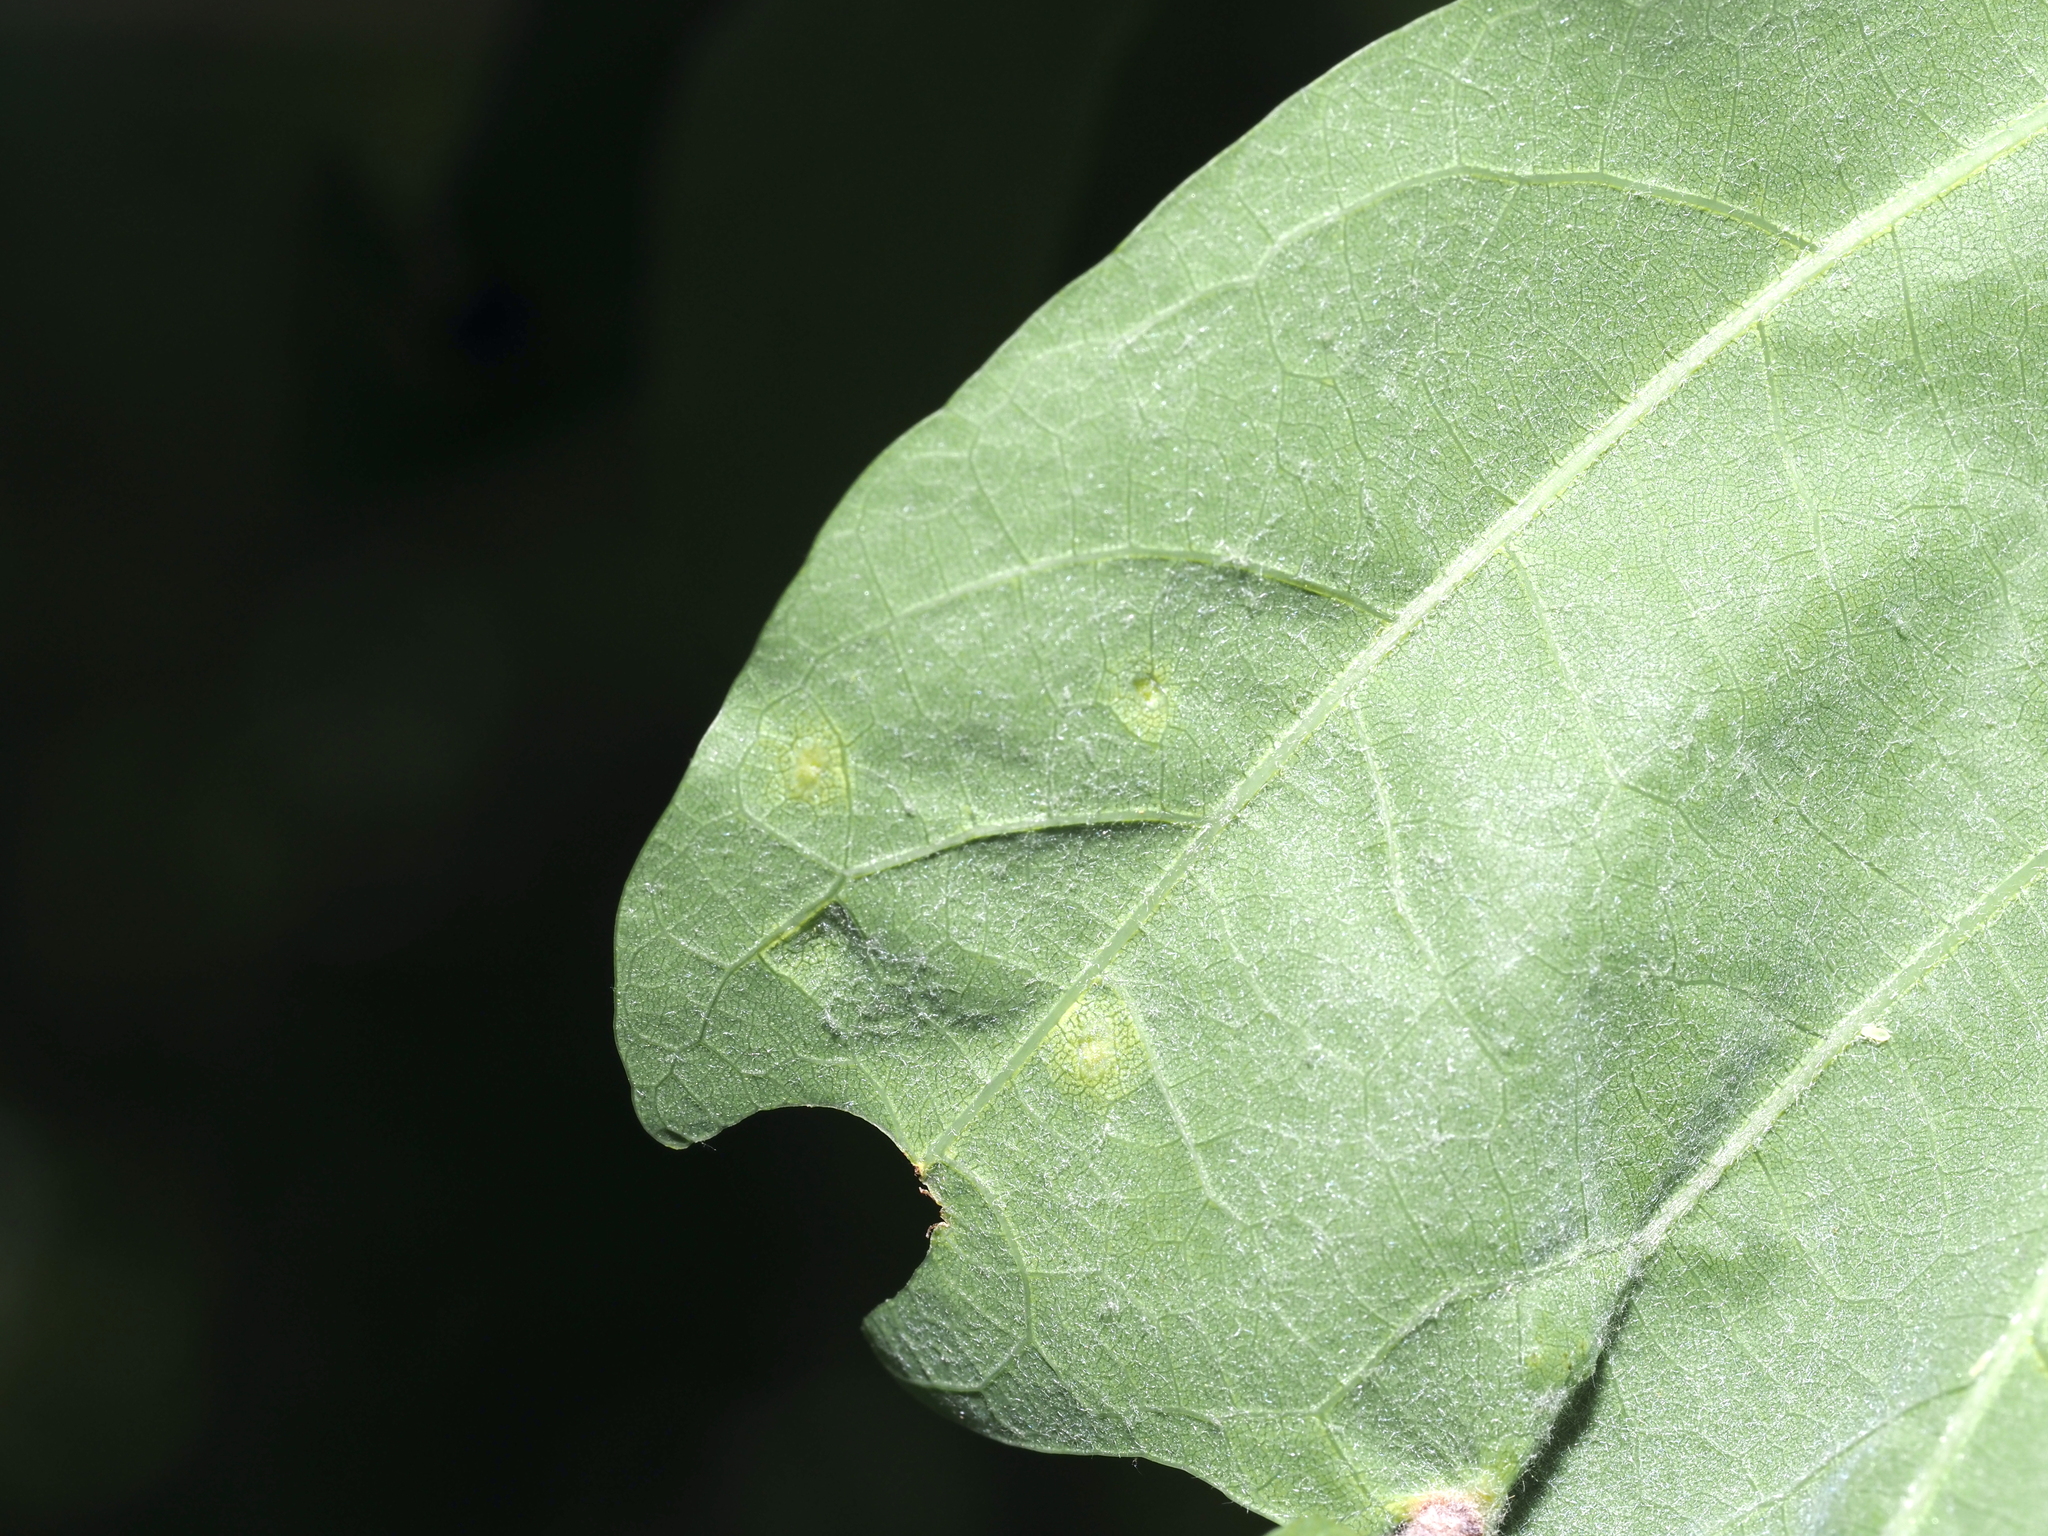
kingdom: Animalia
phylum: Arthropoda
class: Insecta
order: Hymenoptera
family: Cynipidae
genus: Neuroterus
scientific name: Neuroterus quercusverrucarum
